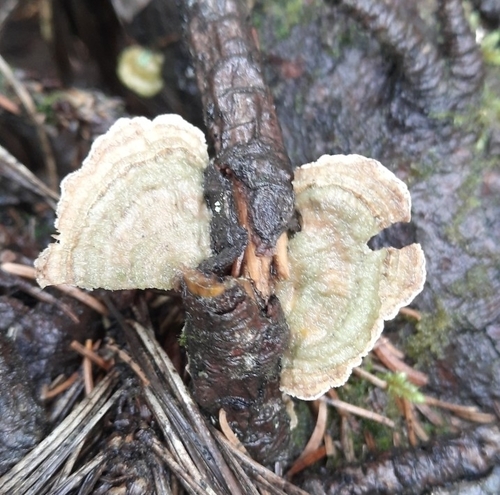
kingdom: Fungi
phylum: Basidiomycota
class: Agaricomycetes
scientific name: Agaricomycetes
